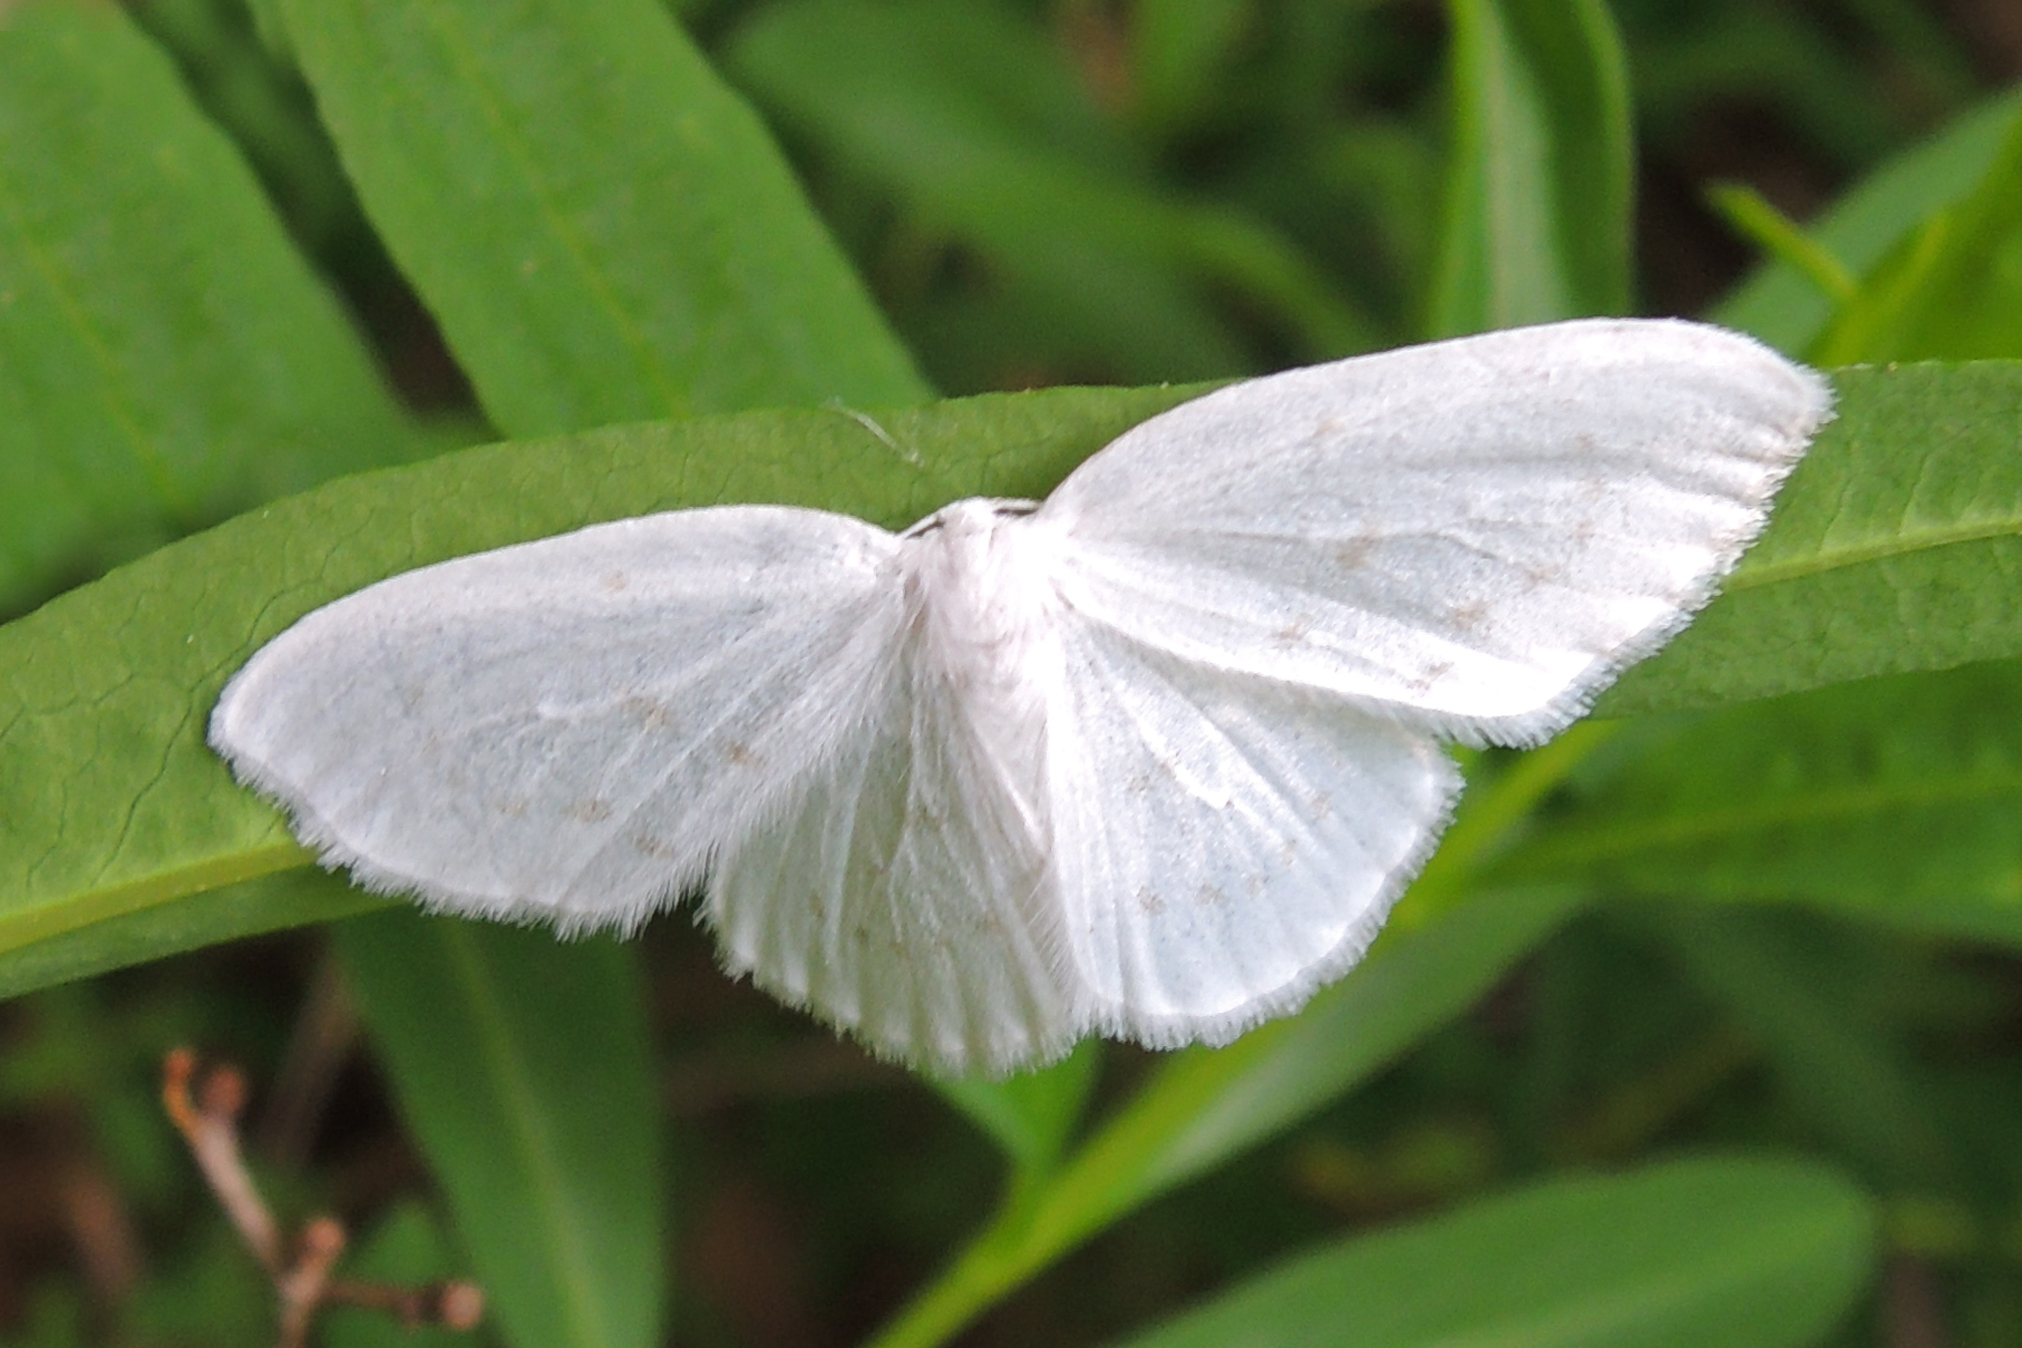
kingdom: Animalia
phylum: Arthropoda
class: Insecta
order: Lepidoptera
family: Drepanidae
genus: Eudeilinia
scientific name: Eudeilinia herminiata
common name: Northern eudeilinea moth
